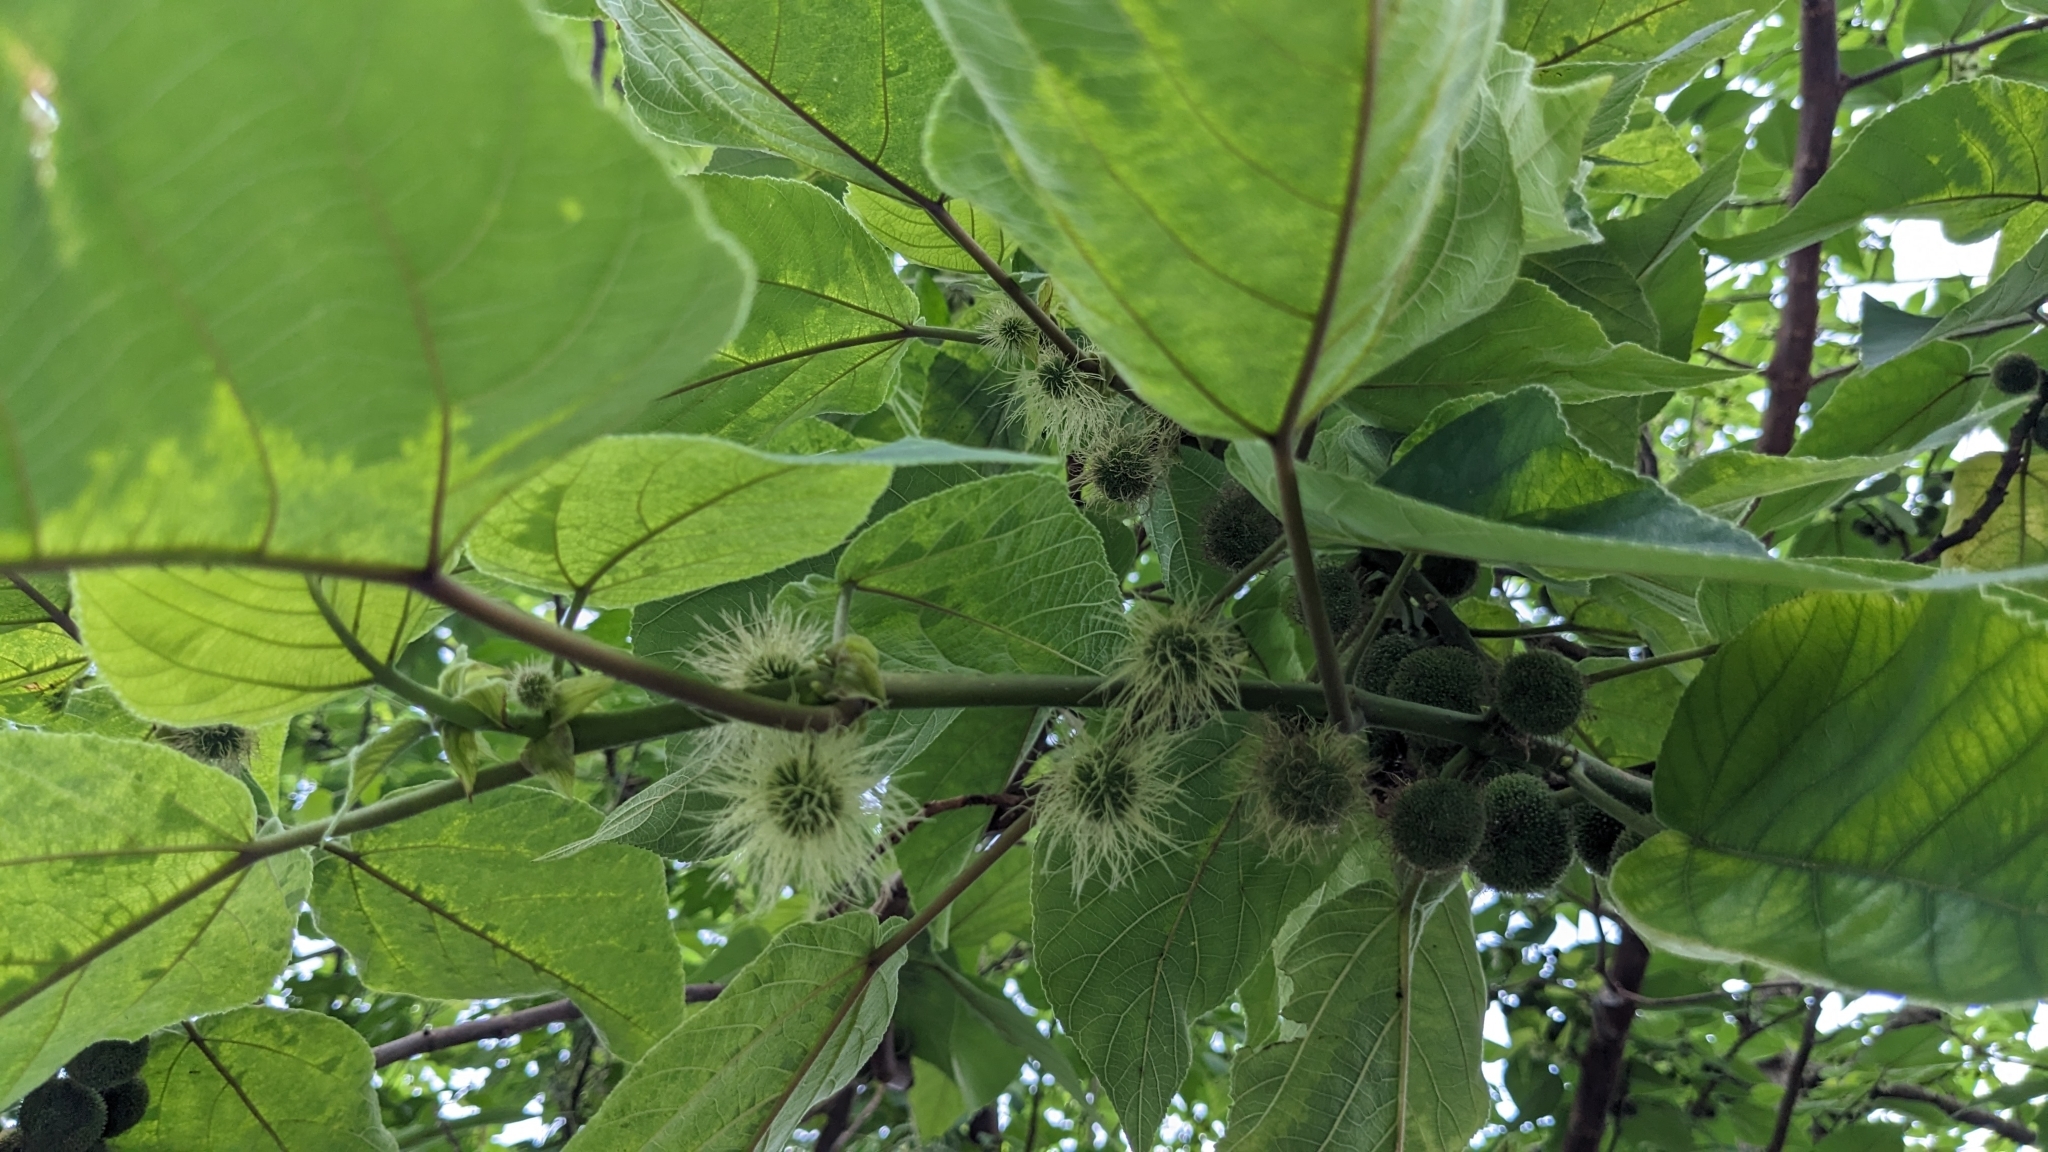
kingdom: Plantae
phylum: Tracheophyta
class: Magnoliopsida
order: Rosales
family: Moraceae
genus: Broussonetia
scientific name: Broussonetia papyrifera
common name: Paper mulberry
